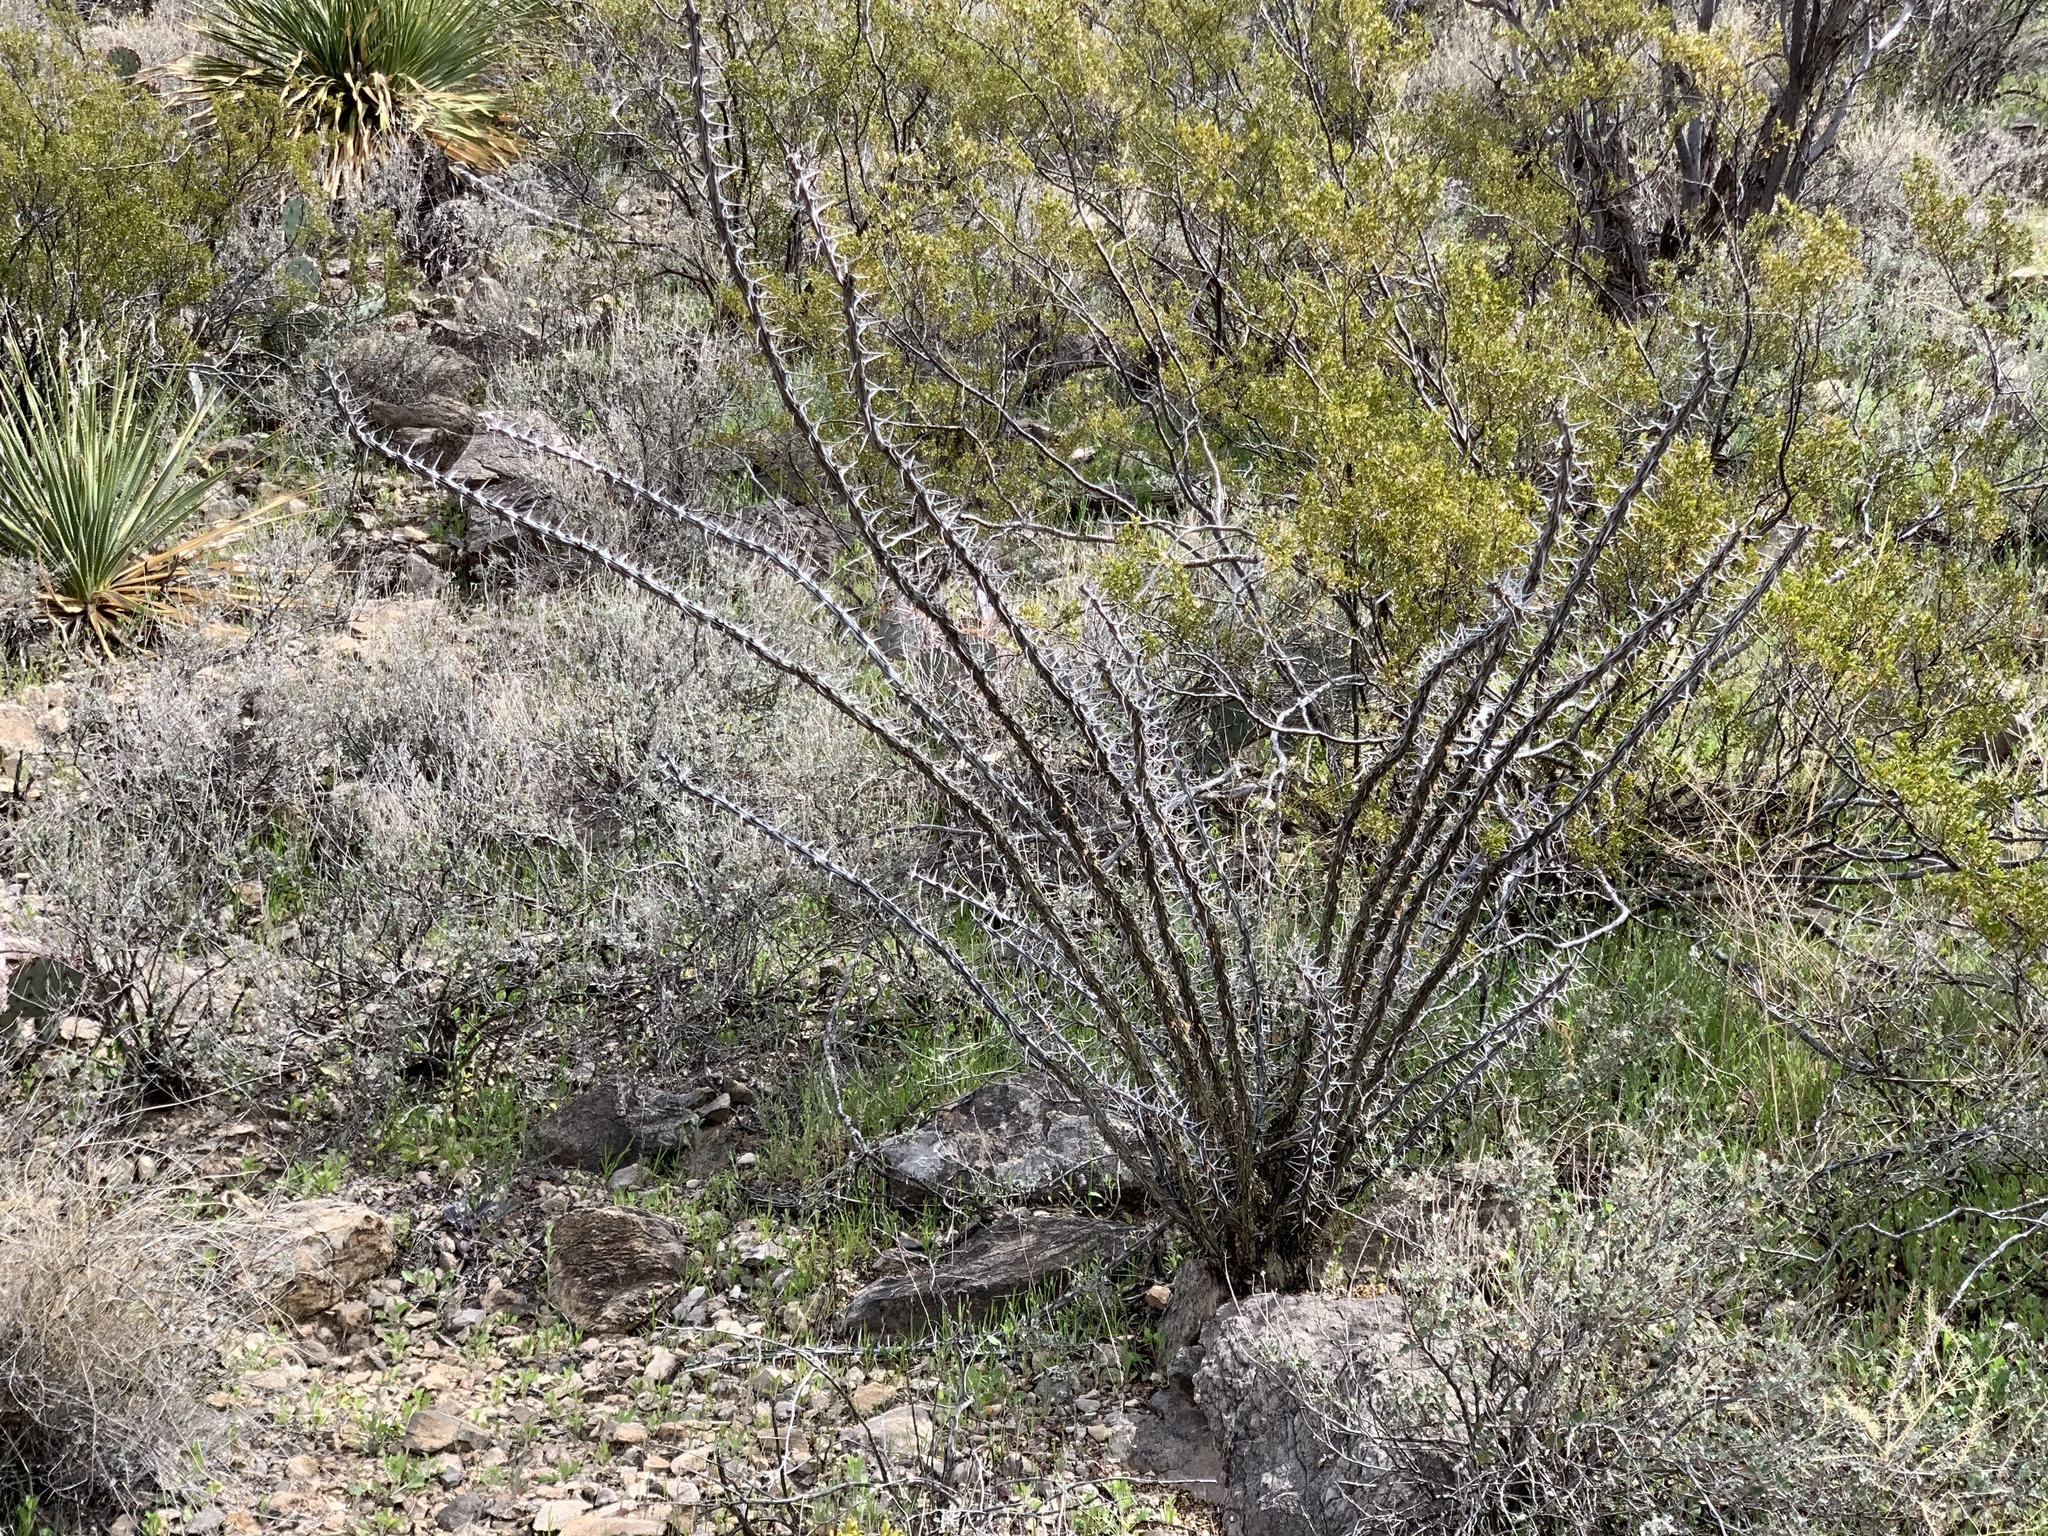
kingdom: Plantae
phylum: Tracheophyta
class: Magnoliopsida
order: Ericales
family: Fouquieriaceae
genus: Fouquieria
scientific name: Fouquieria splendens
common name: Vine-cactus
